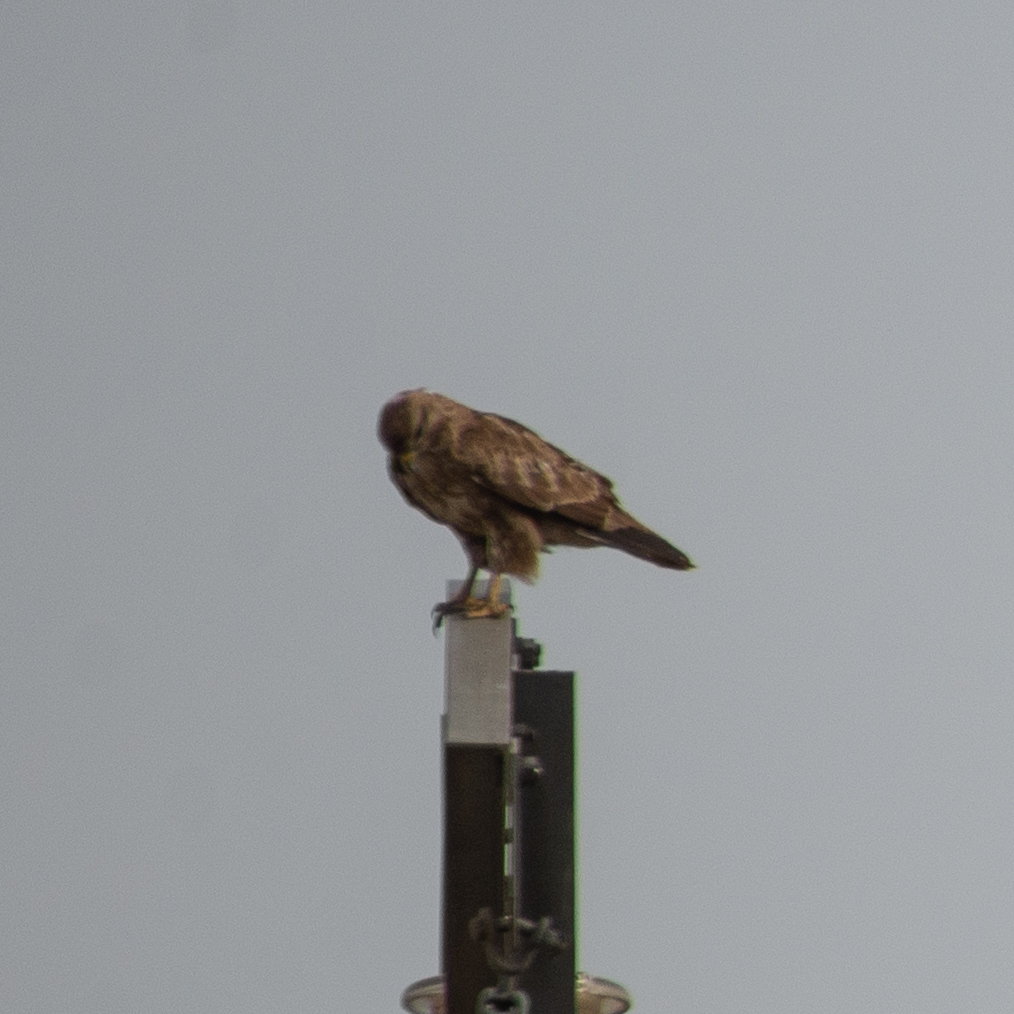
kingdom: Animalia
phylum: Chordata
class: Aves
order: Accipitriformes
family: Accipitridae
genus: Buteo
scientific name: Buteo buteo
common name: Common buzzard
